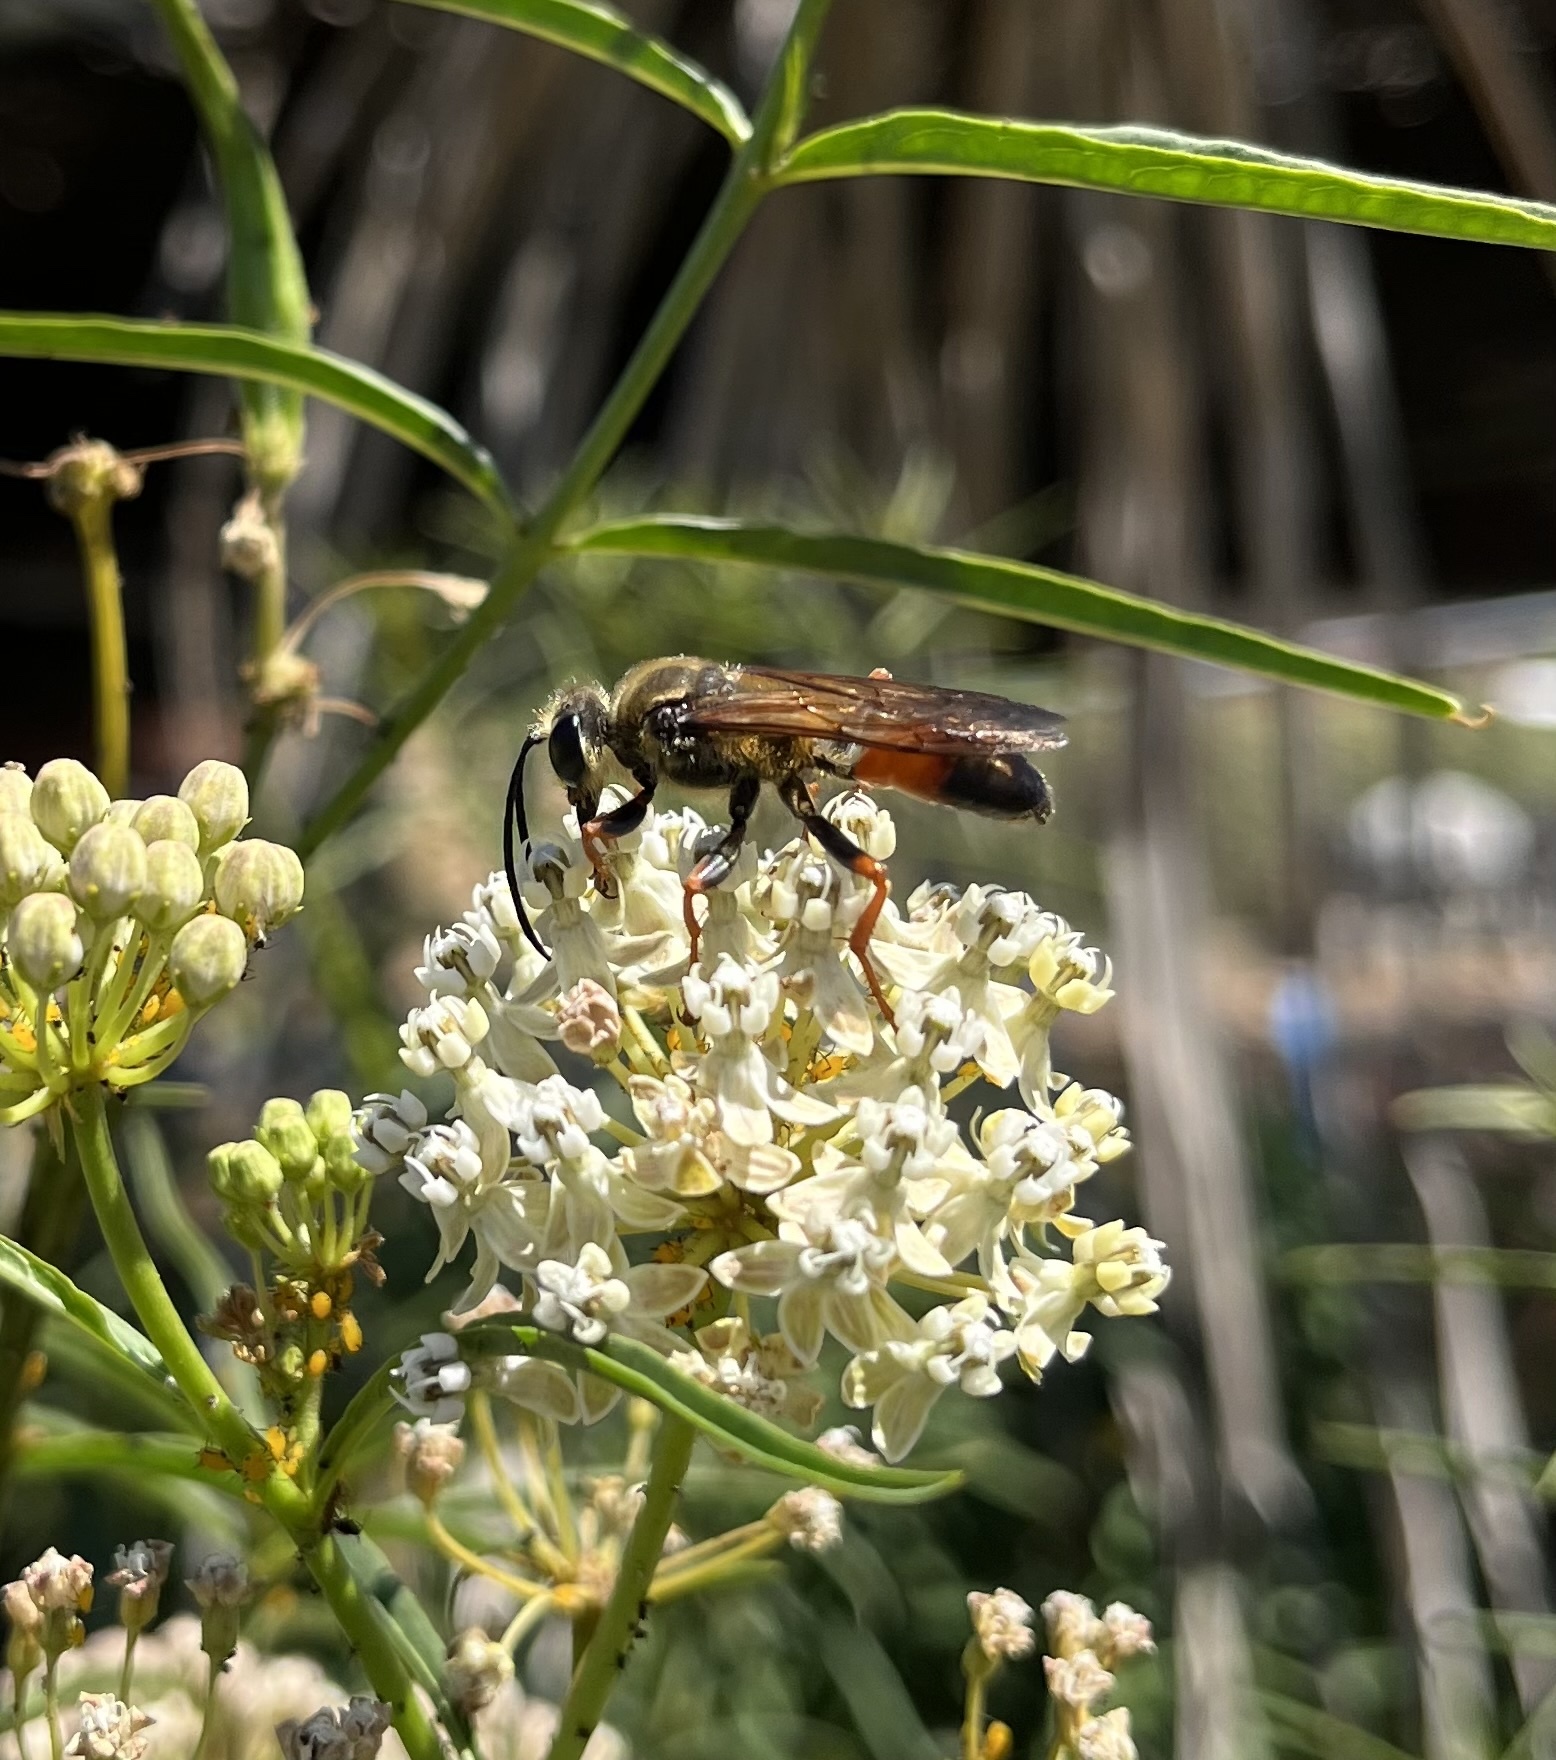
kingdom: Animalia
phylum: Arthropoda
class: Insecta
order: Hymenoptera
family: Sphecidae
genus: Sphex
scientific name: Sphex ichneumoneus
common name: Great golden digger wasp
